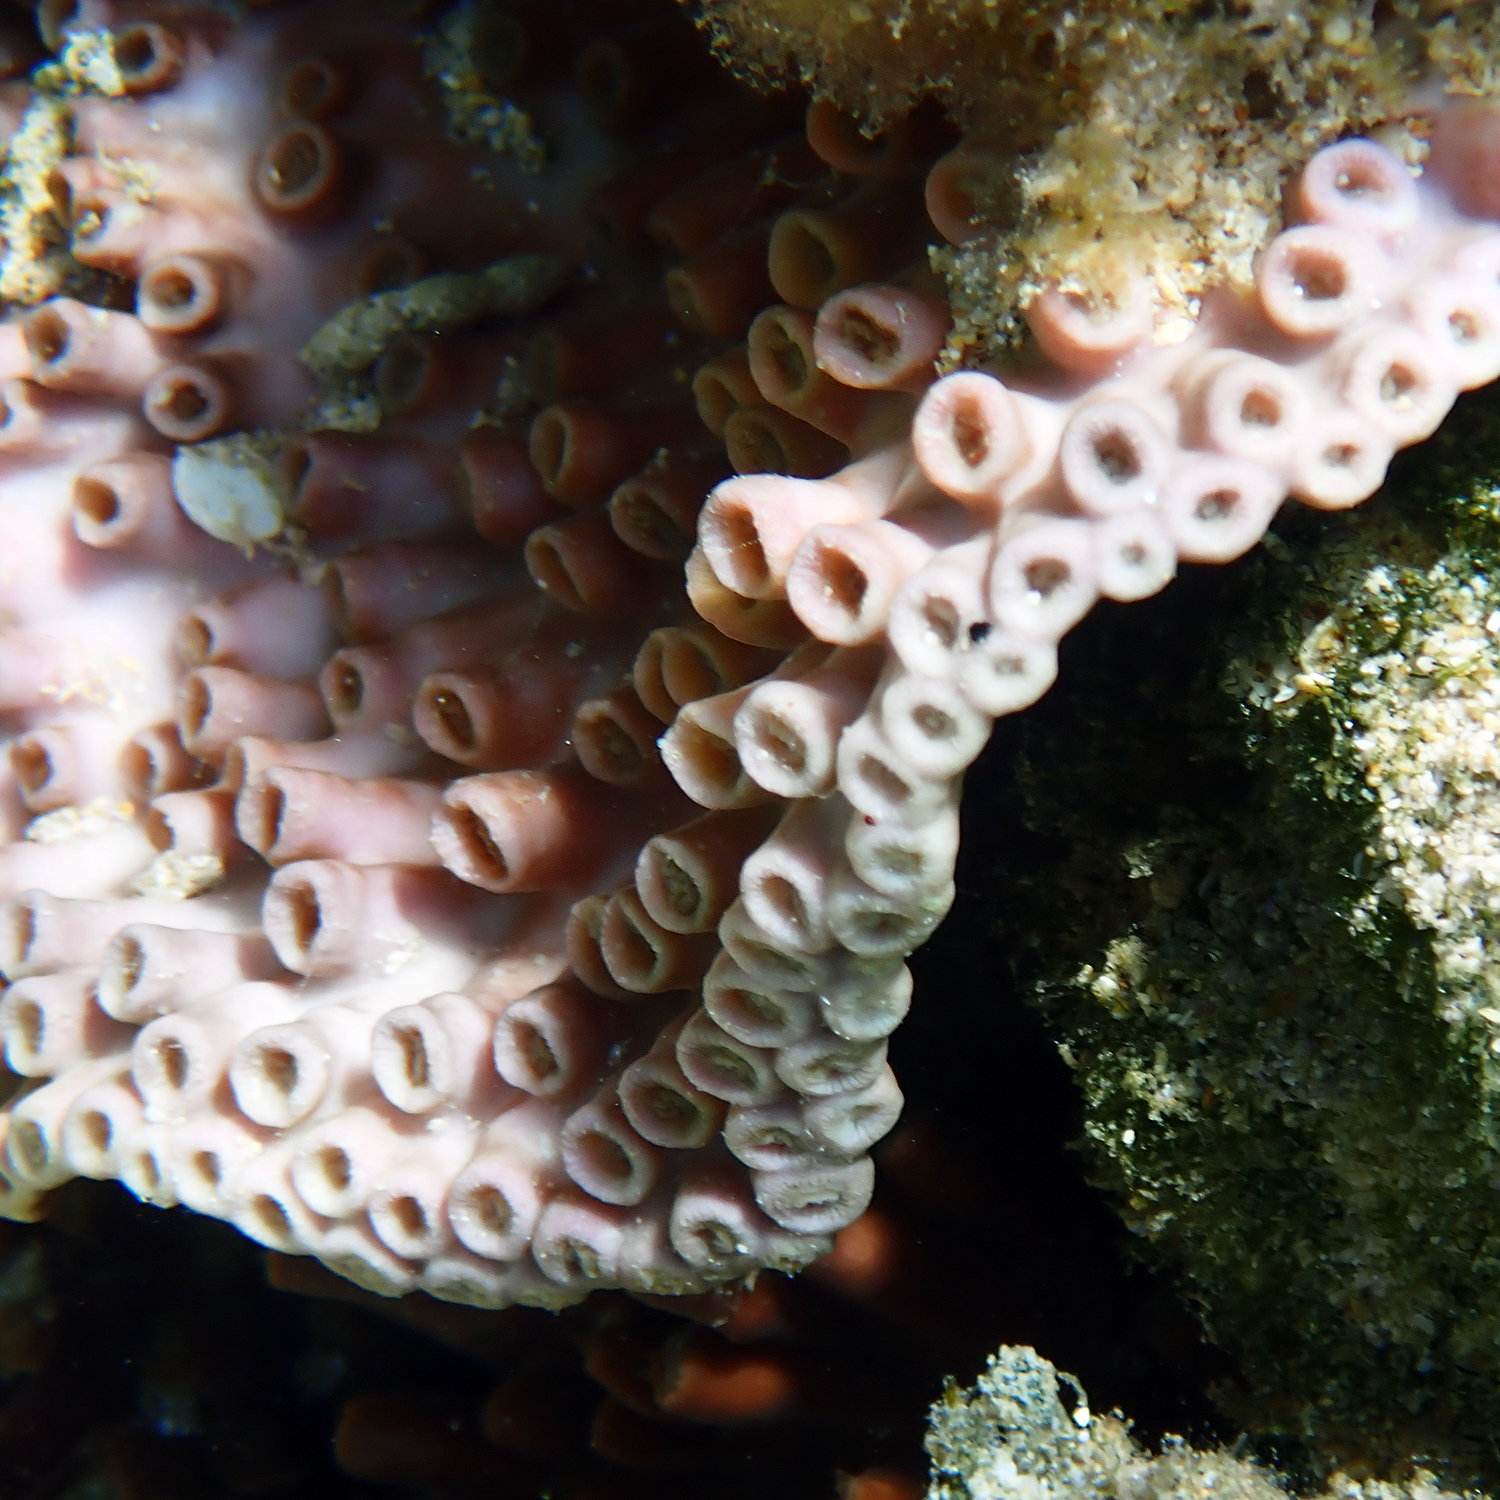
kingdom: Animalia
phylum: Cnidaria
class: Anthozoa
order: Scleractinia
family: Dendrophylliidae
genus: Turbinaria
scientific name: Turbinaria heronensis
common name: Disc coral
